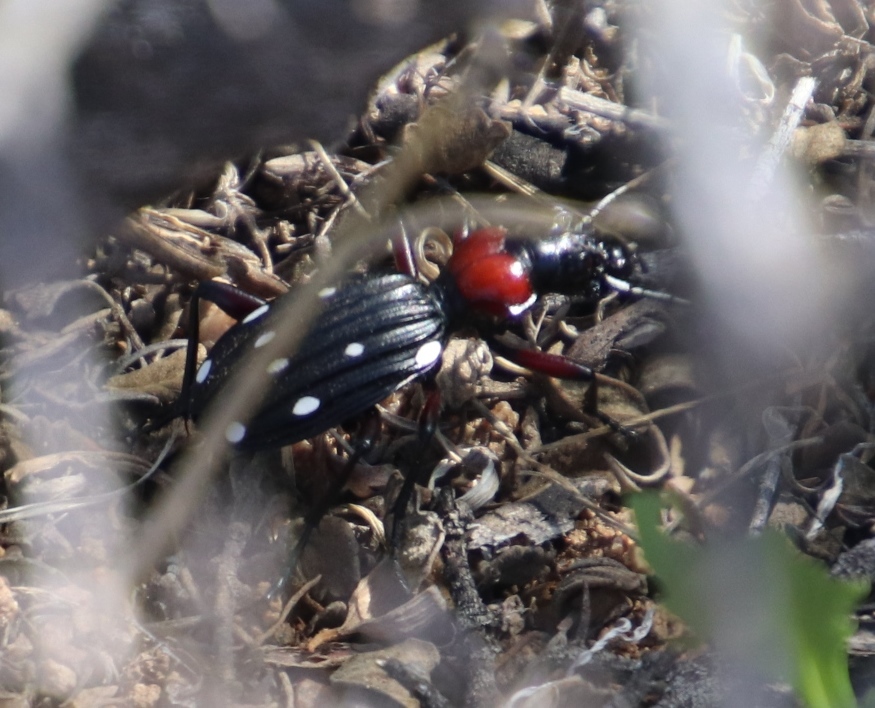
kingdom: Animalia
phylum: Arthropoda
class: Insecta
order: Coleoptera
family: Carabidae
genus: Anthia
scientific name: Anthia decemguttata
